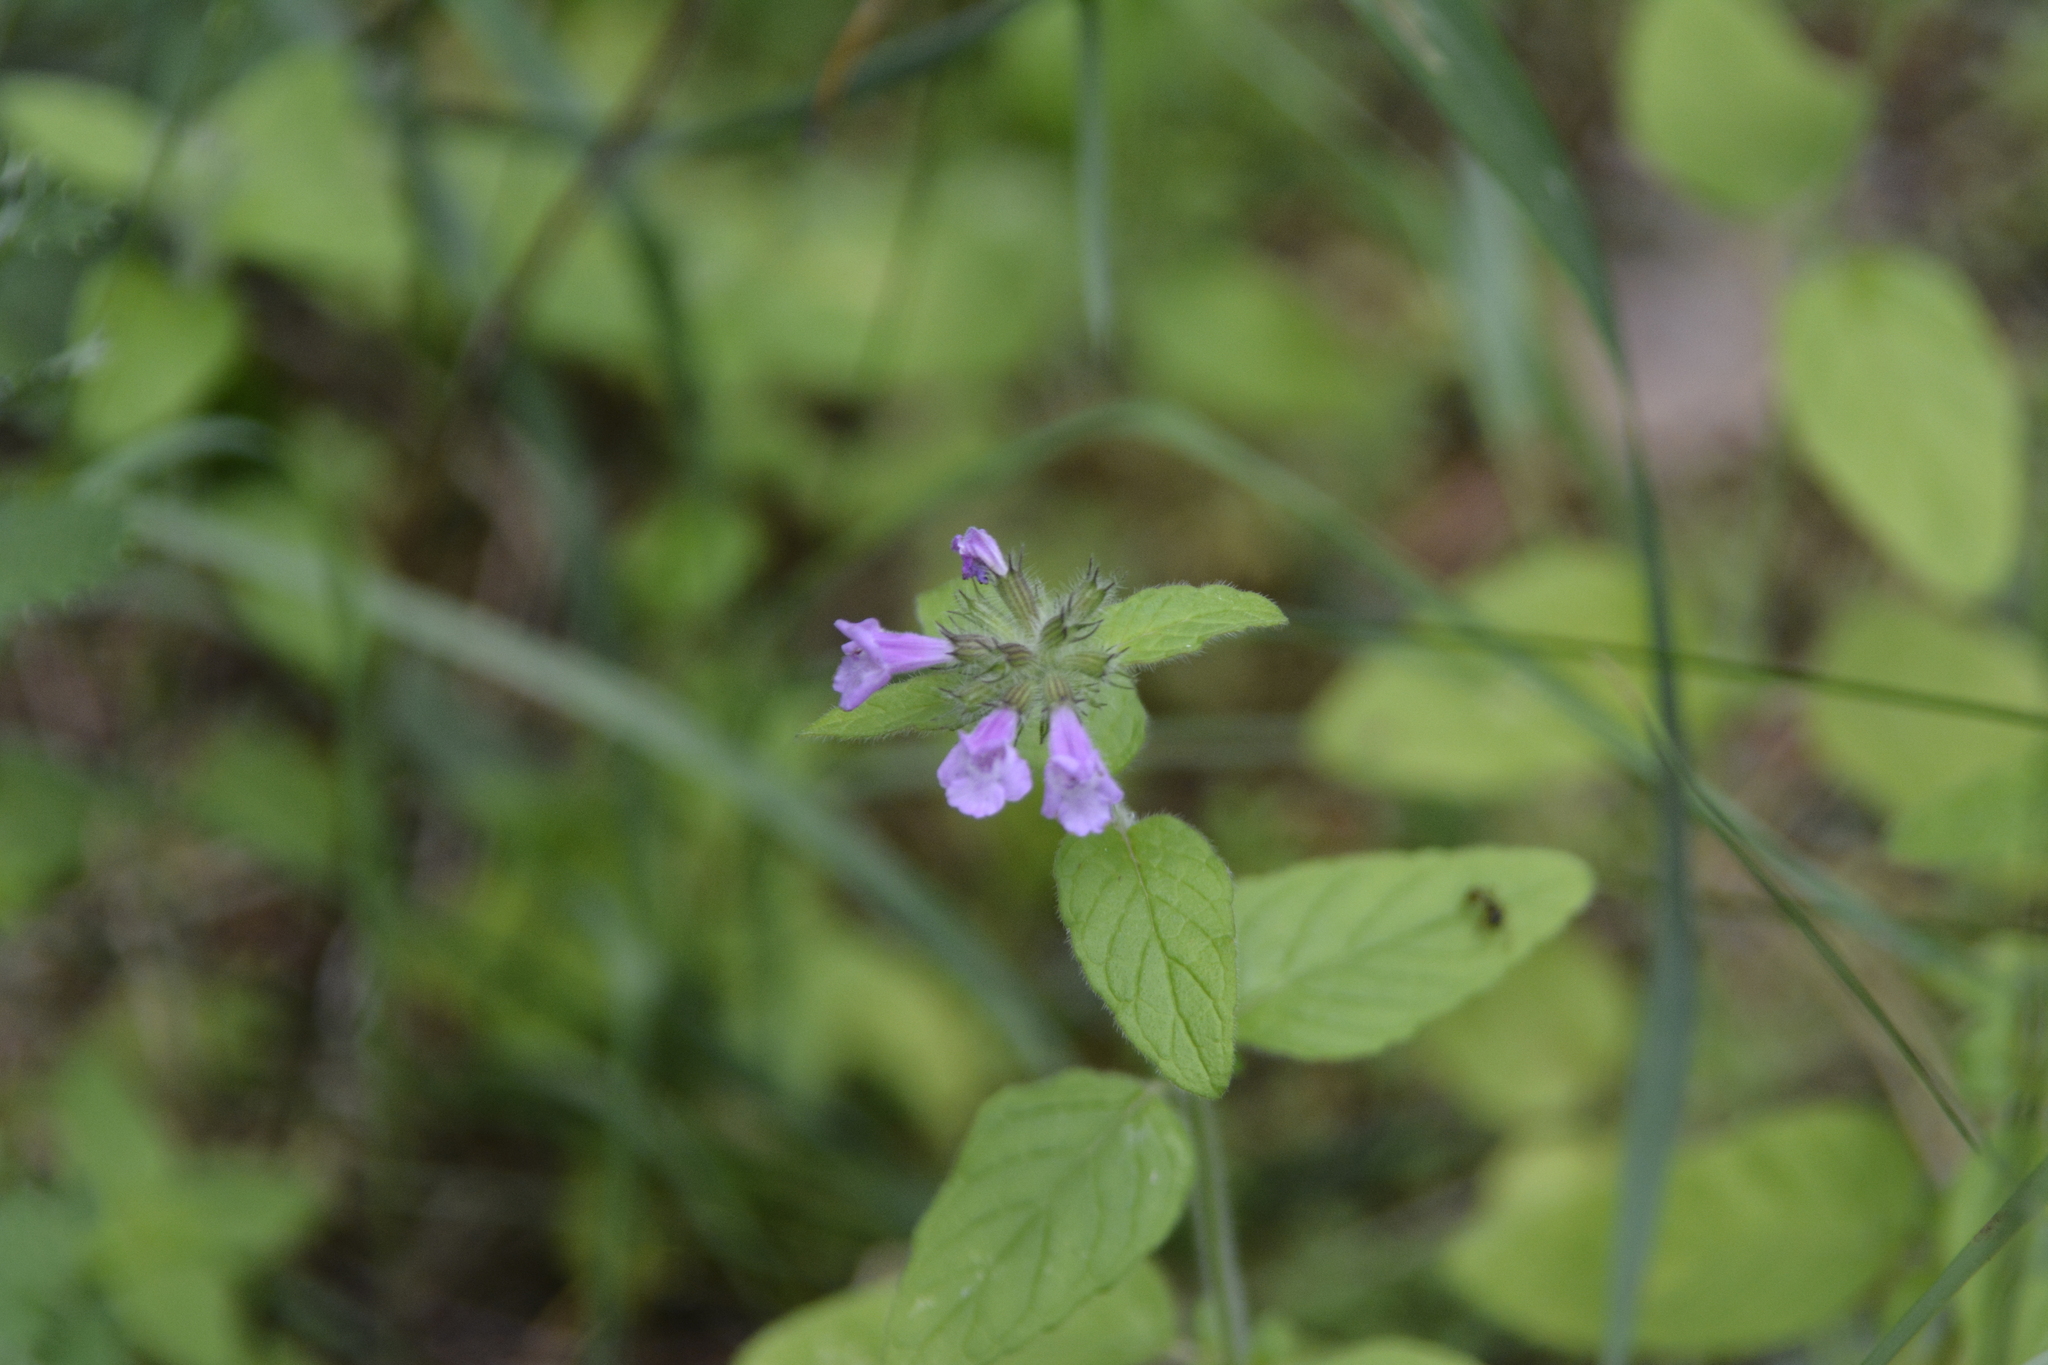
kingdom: Plantae
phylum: Tracheophyta
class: Magnoliopsida
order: Lamiales
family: Lamiaceae
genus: Clinopodium
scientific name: Clinopodium vulgare
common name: Wild basil
